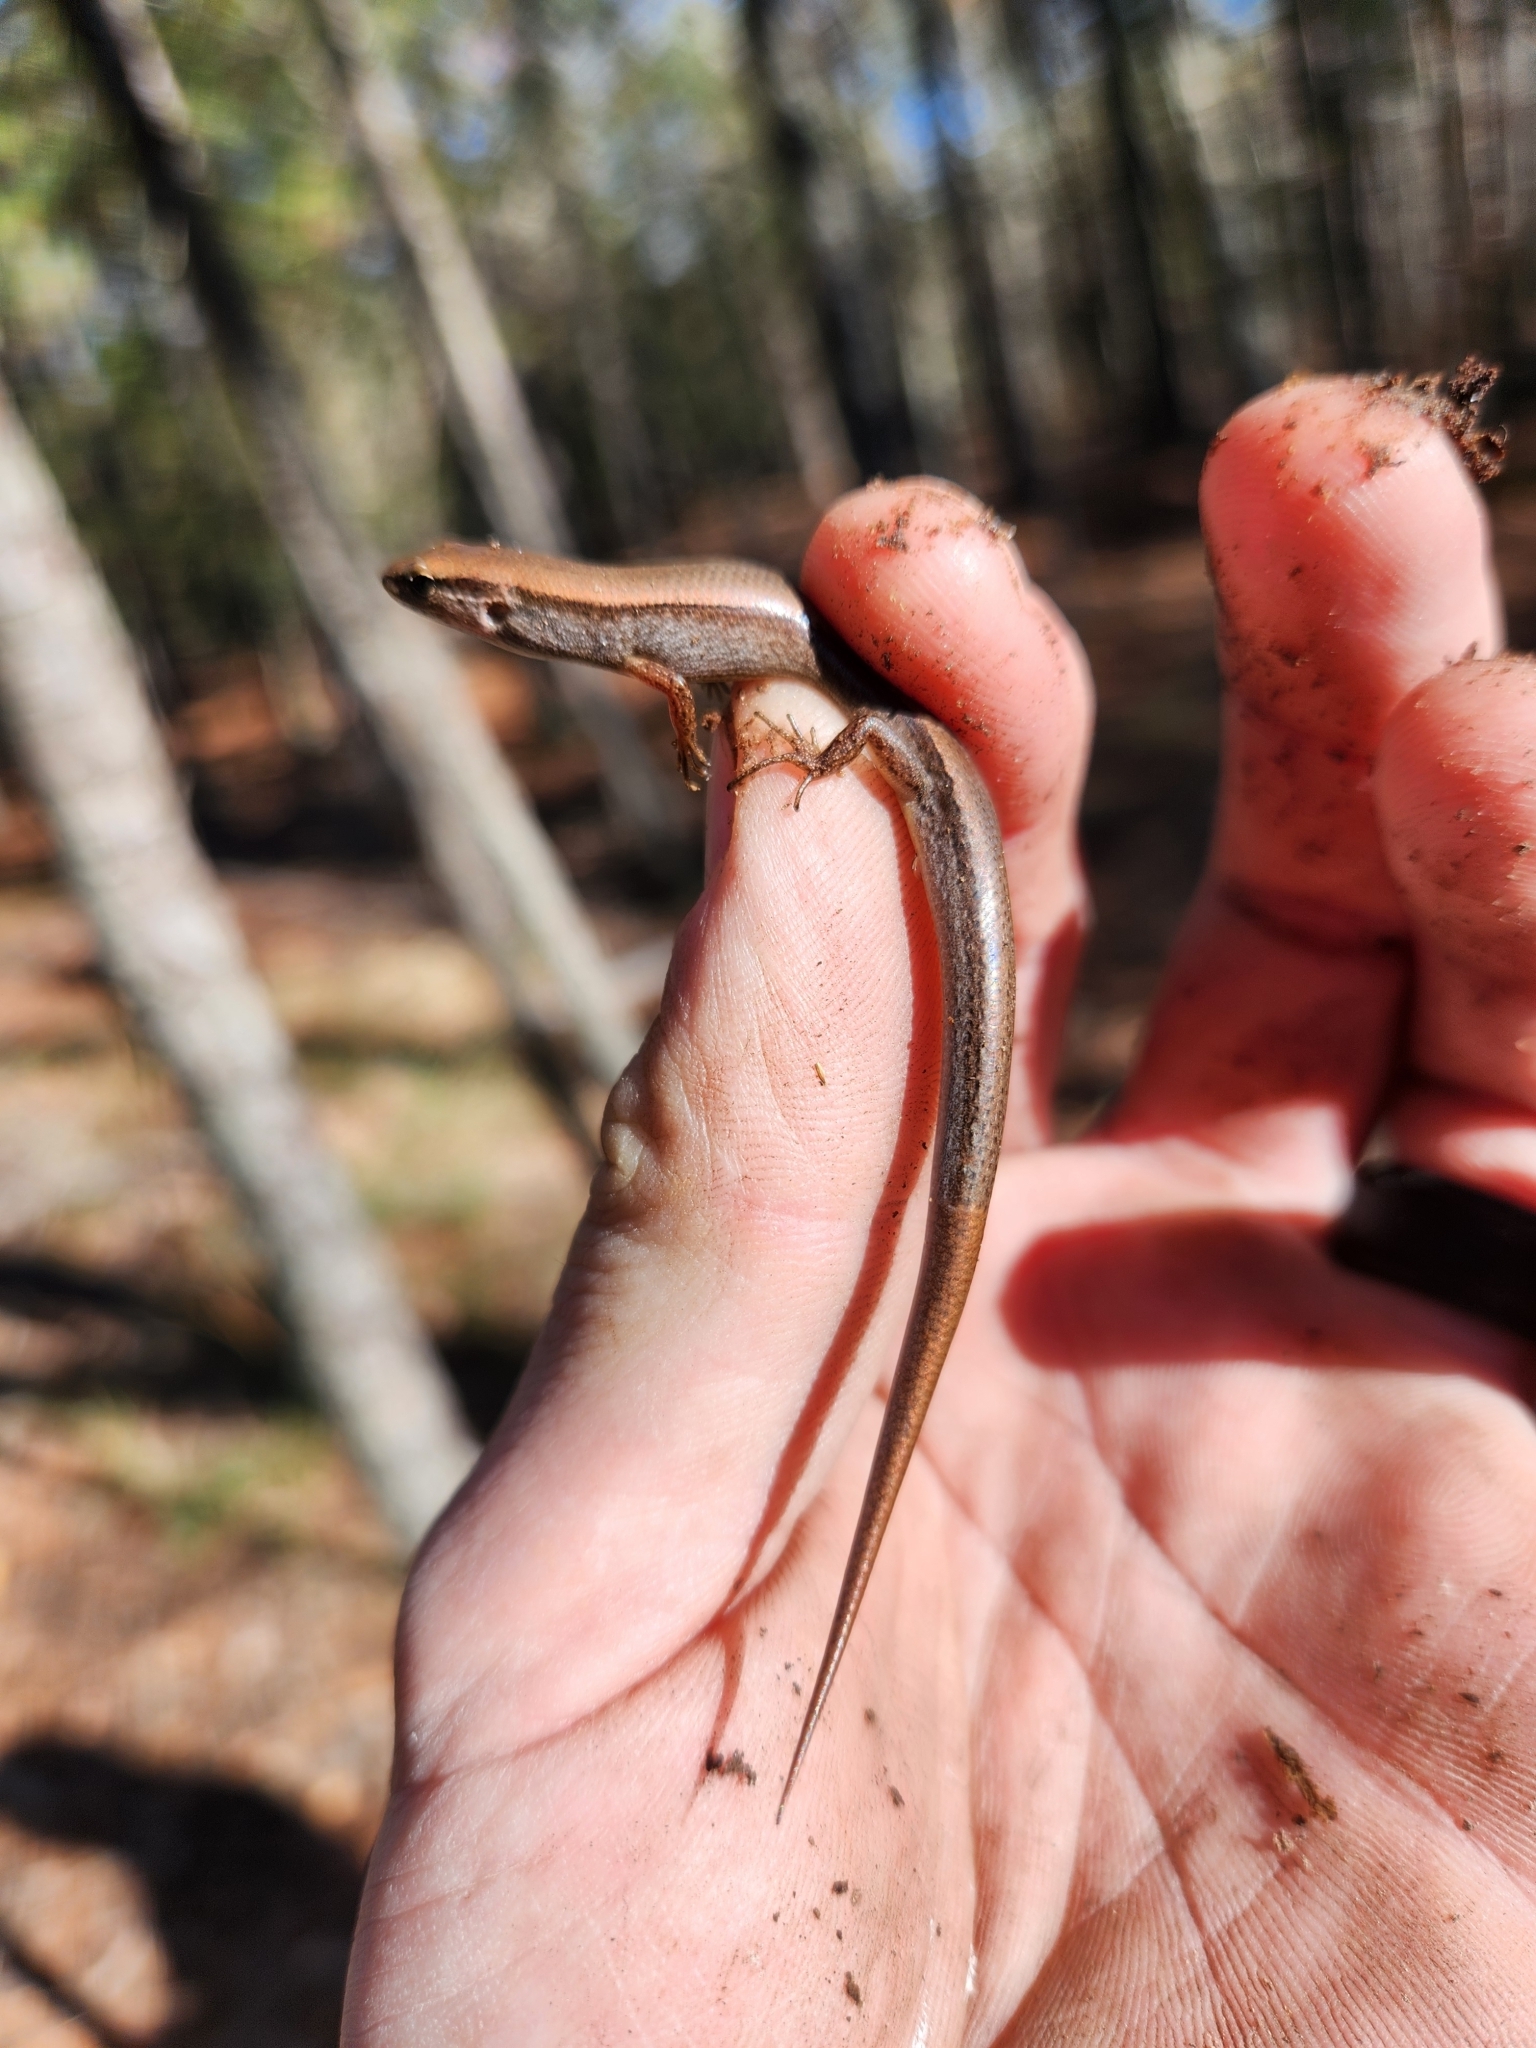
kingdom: Animalia
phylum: Chordata
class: Squamata
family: Scincidae
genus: Scincella
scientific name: Scincella lateralis
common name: Ground skink
